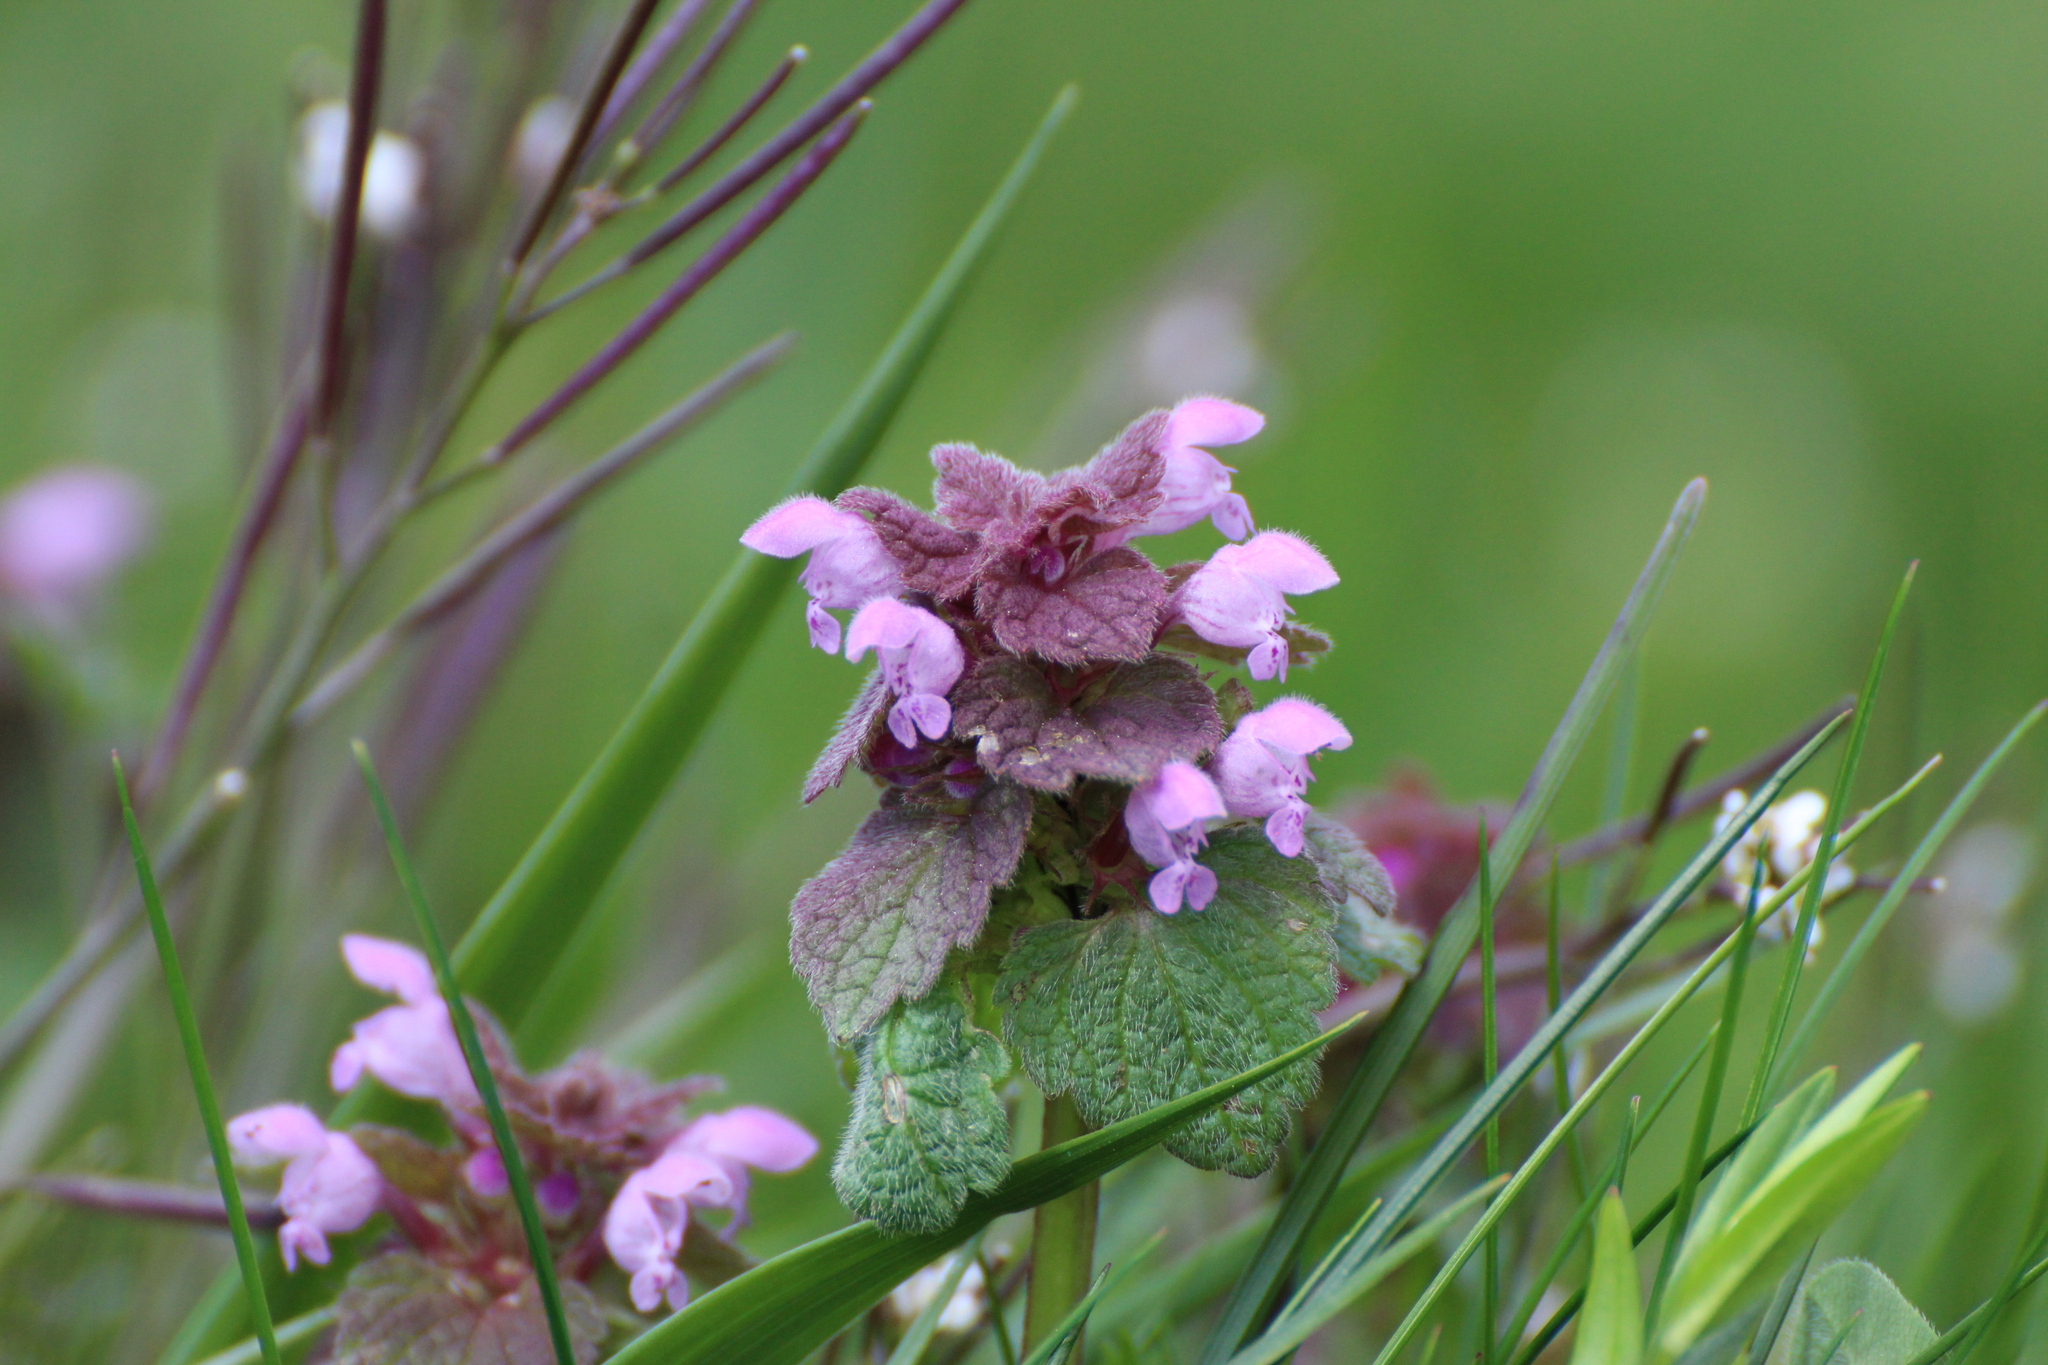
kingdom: Plantae
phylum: Tracheophyta
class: Magnoliopsida
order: Lamiales
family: Lamiaceae
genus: Lamium
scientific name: Lamium purpureum
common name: Red dead-nettle
